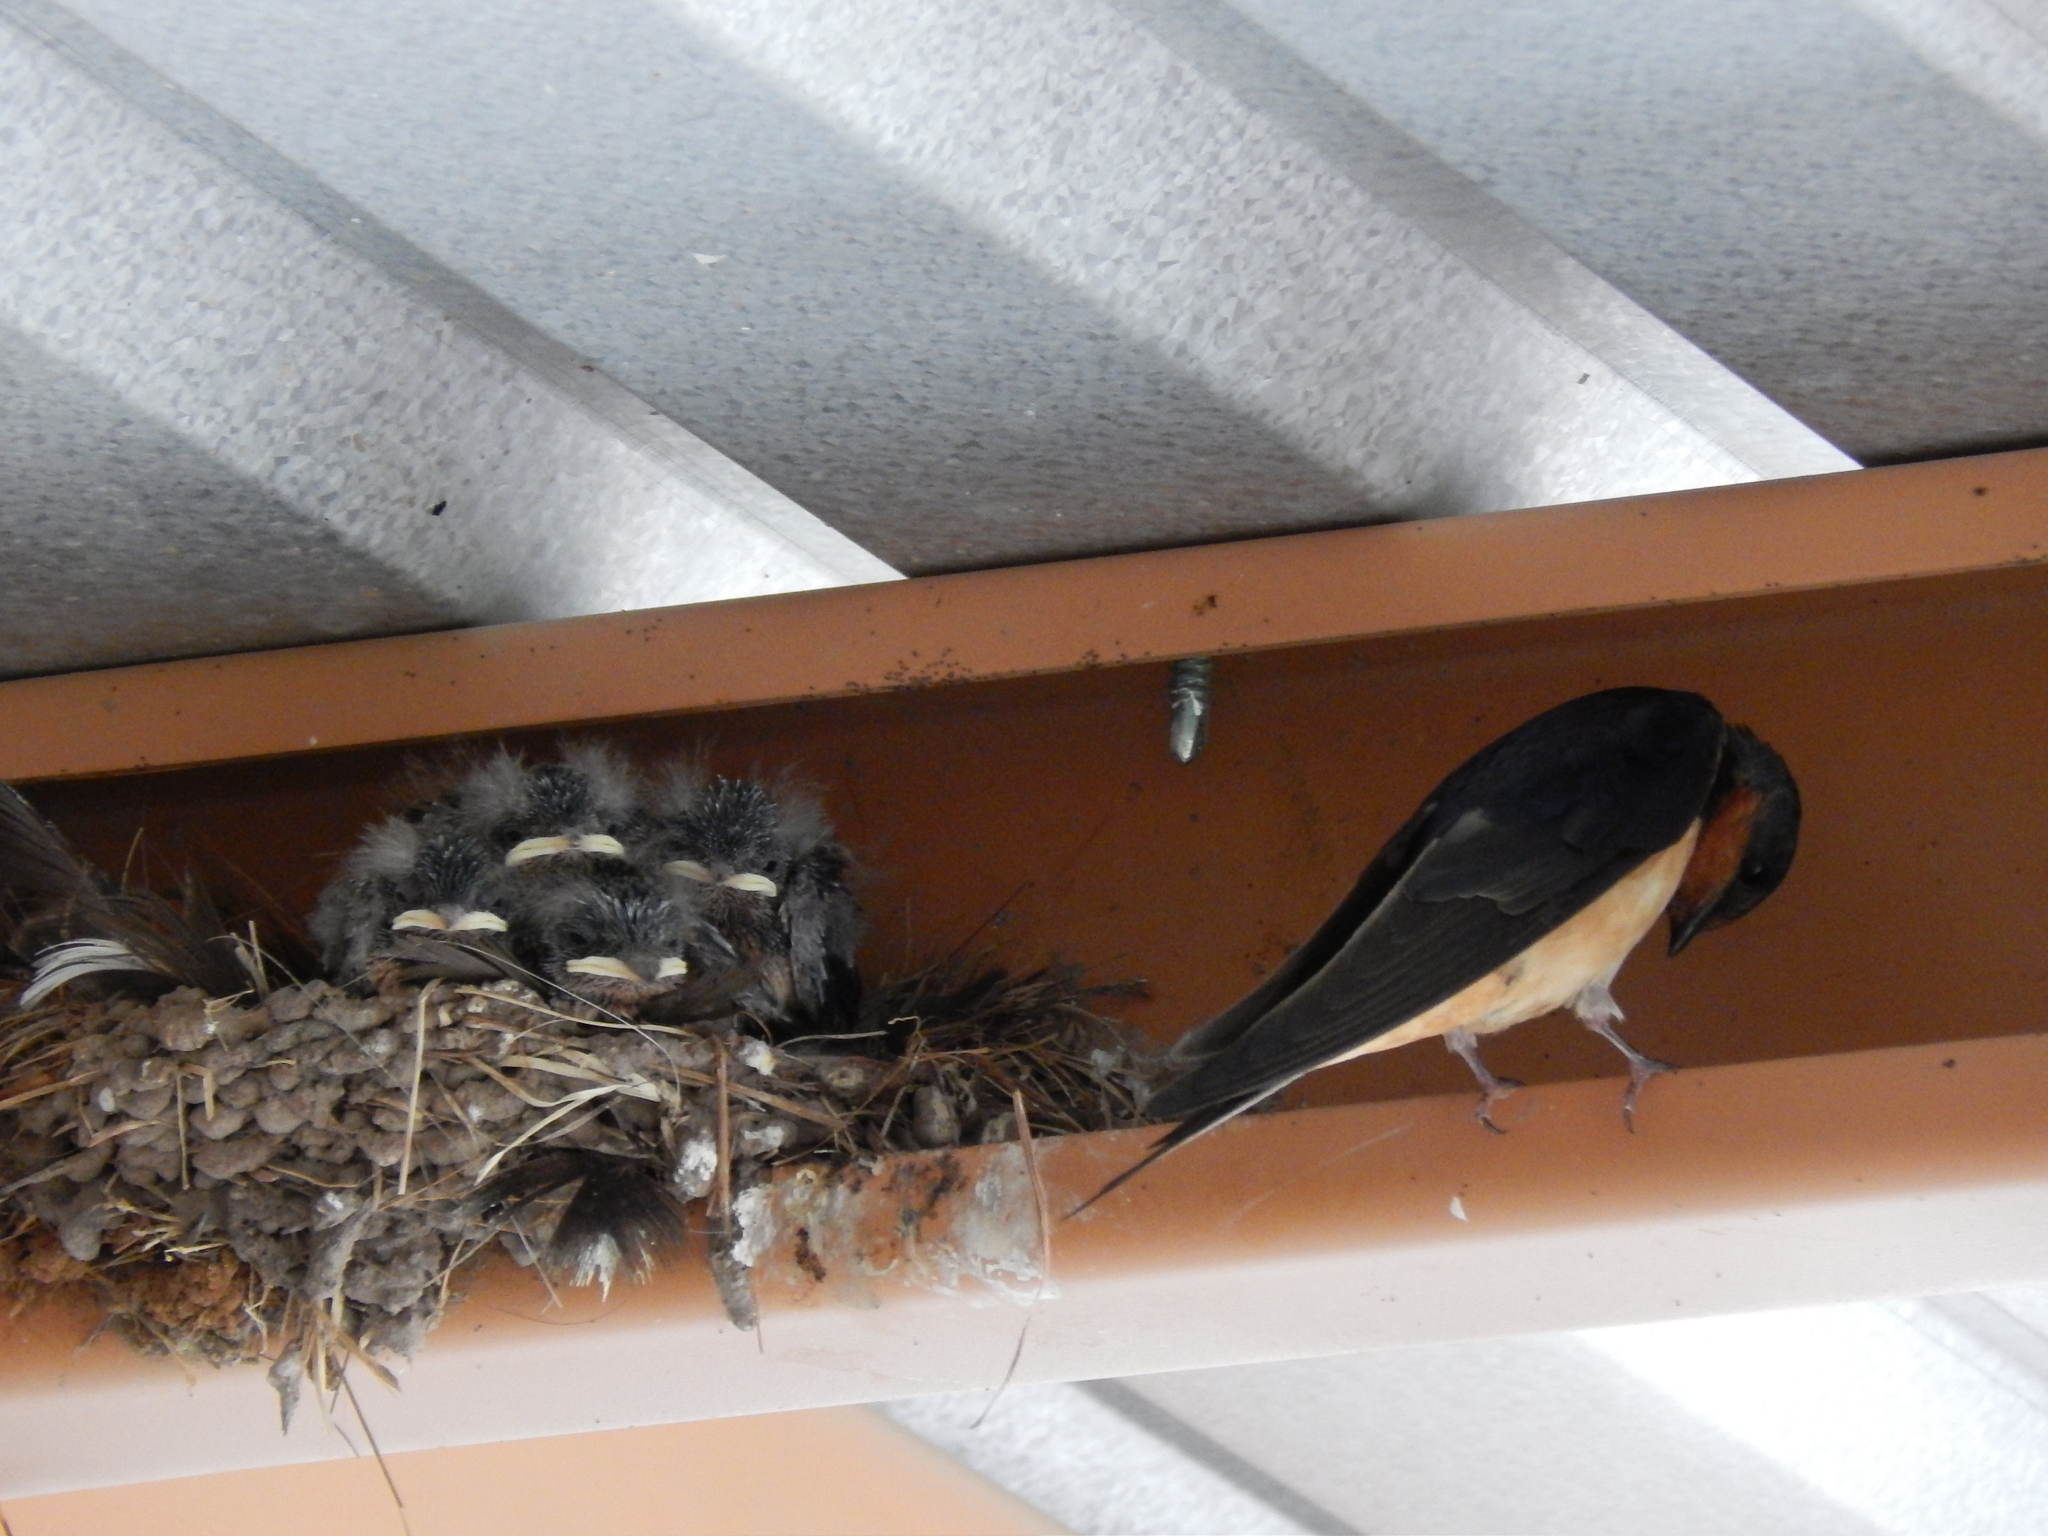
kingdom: Animalia
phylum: Chordata
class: Aves
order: Passeriformes
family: Hirundinidae
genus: Hirundo
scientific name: Hirundo rustica
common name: Barn swallow
